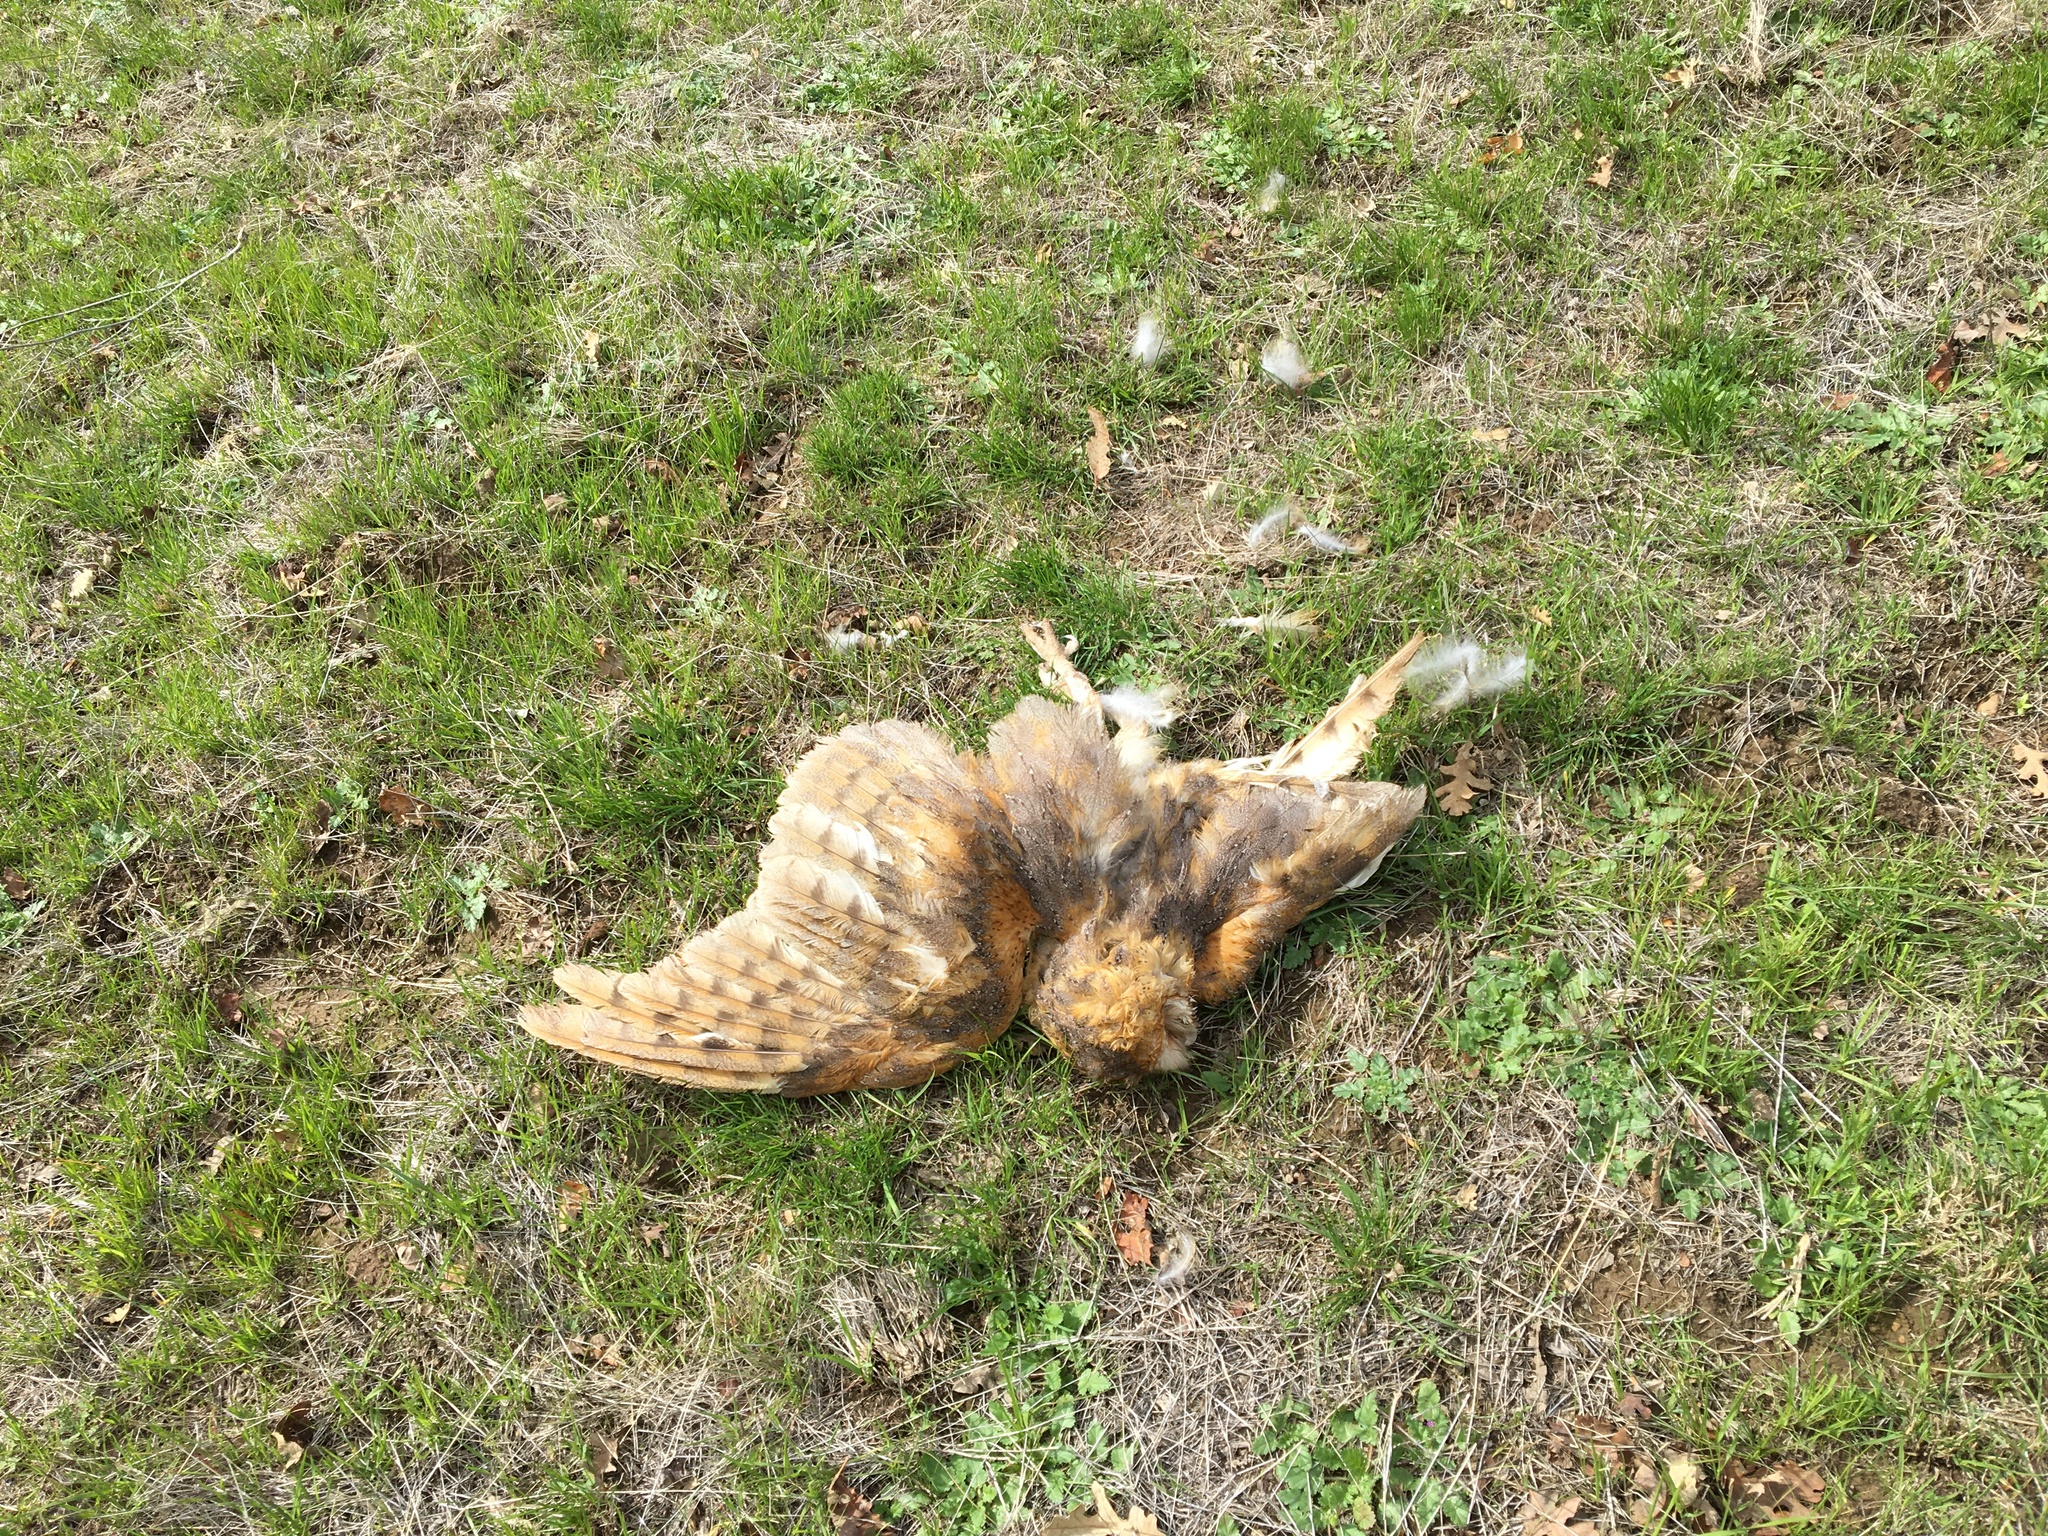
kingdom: Animalia
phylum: Chordata
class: Aves
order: Strigiformes
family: Tytonidae
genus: Tyto
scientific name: Tyto alba
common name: Barn owl
